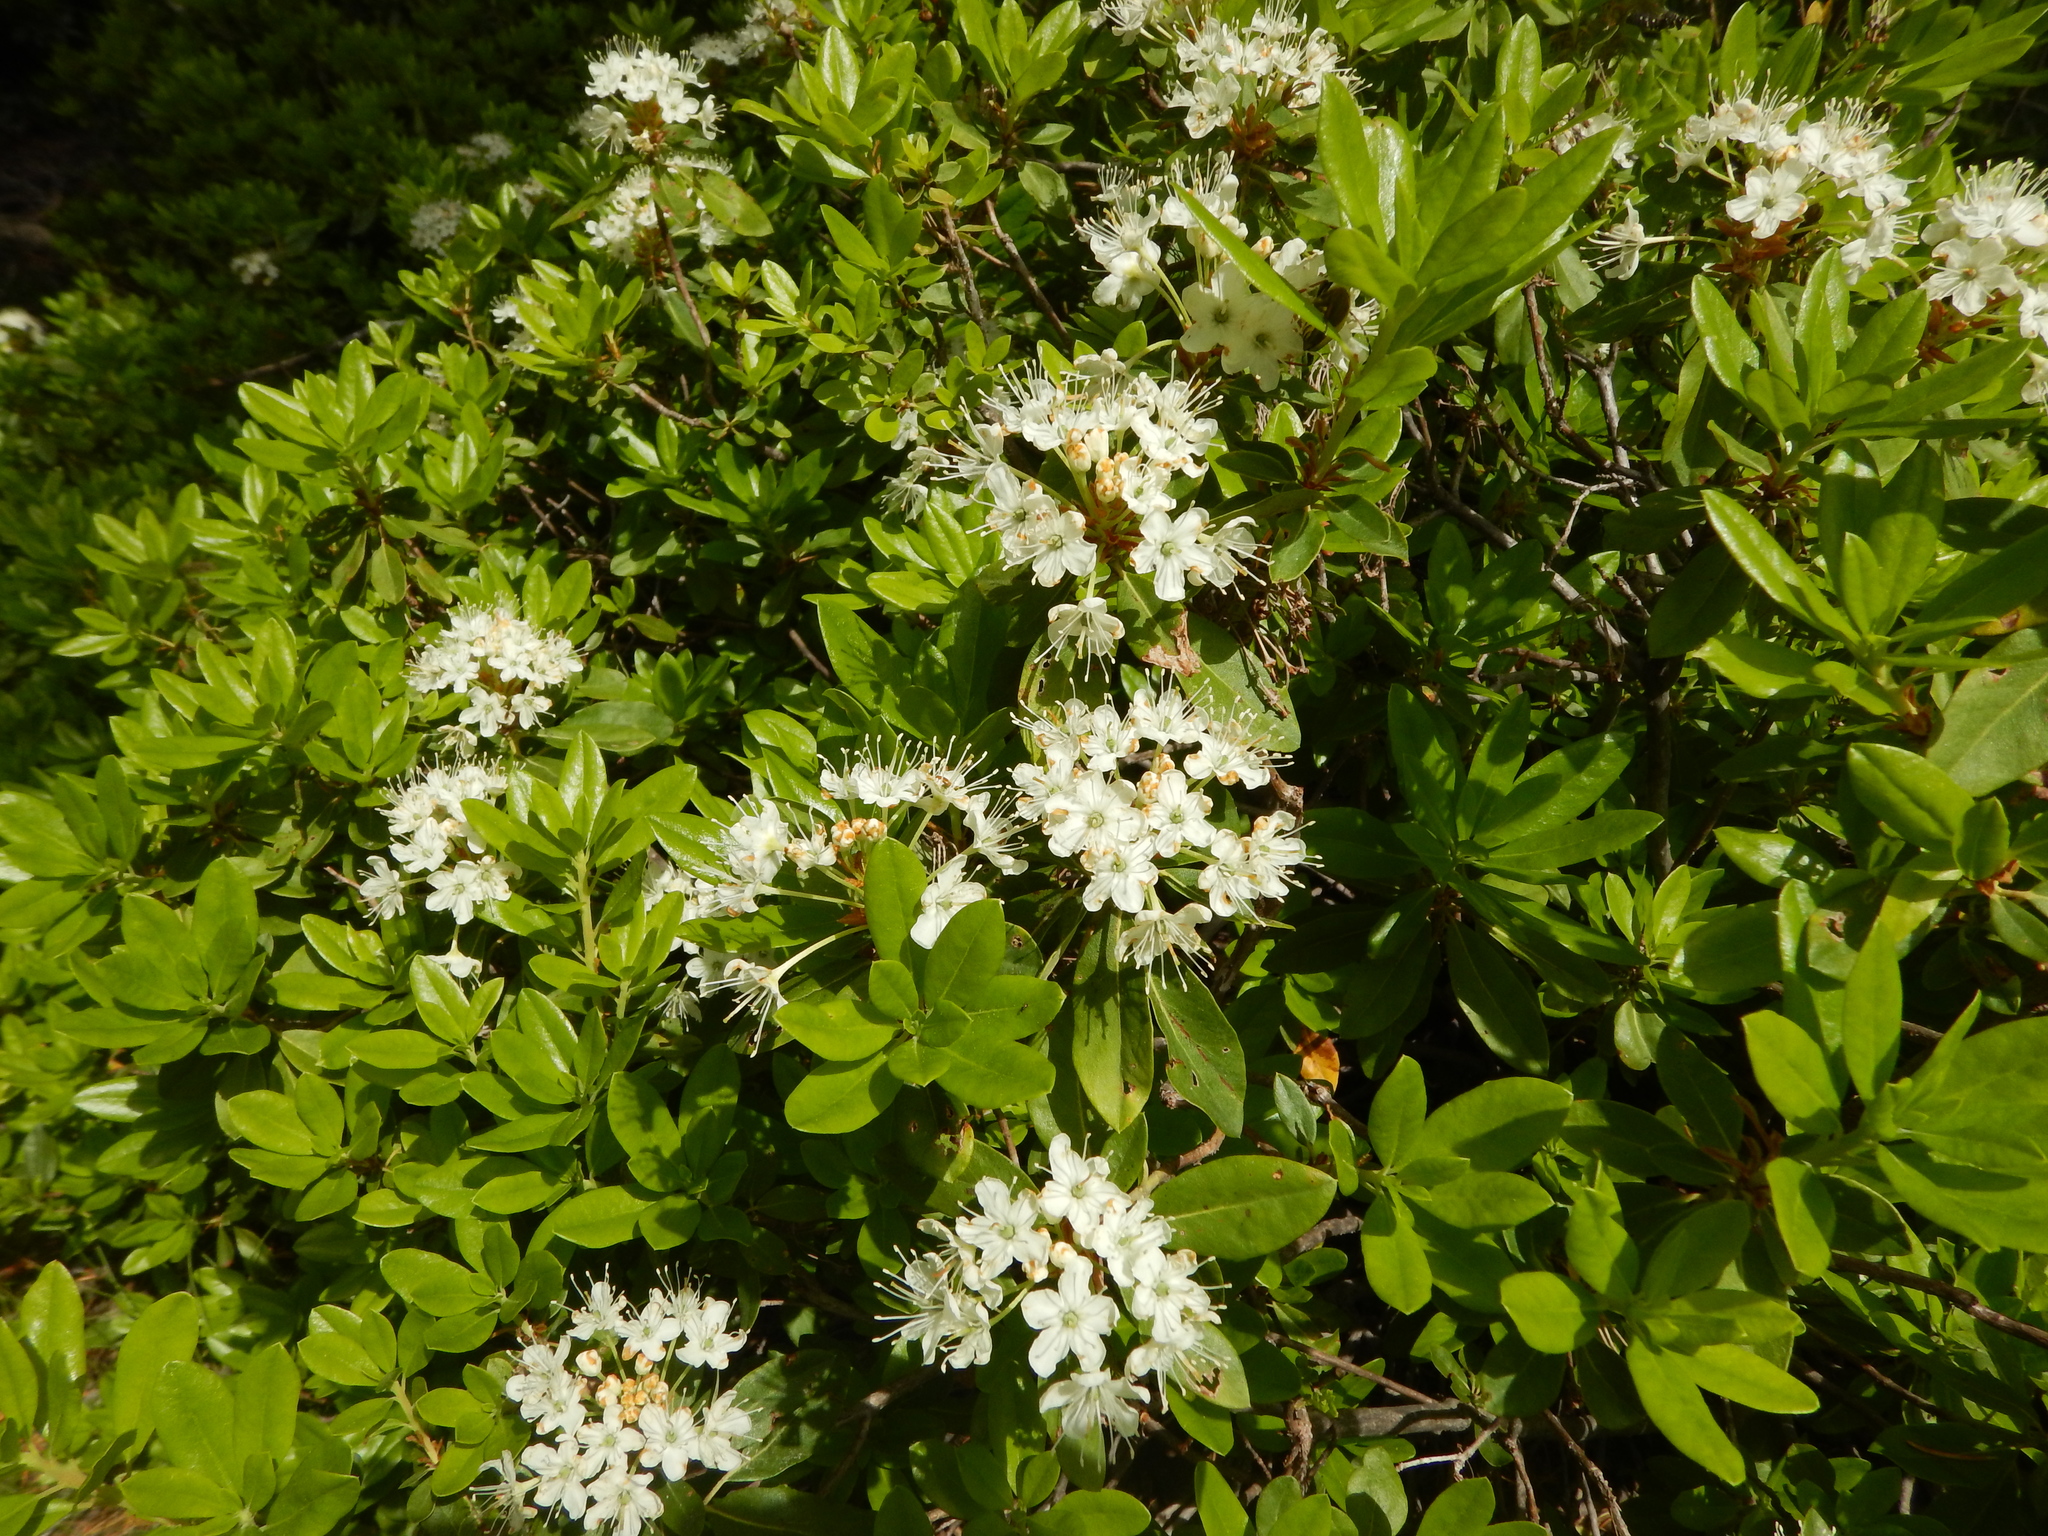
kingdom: Plantae
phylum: Tracheophyta
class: Magnoliopsida
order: Ericales
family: Ericaceae
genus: Rhododendron
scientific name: Rhododendron columbianum
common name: Western labrador tea
